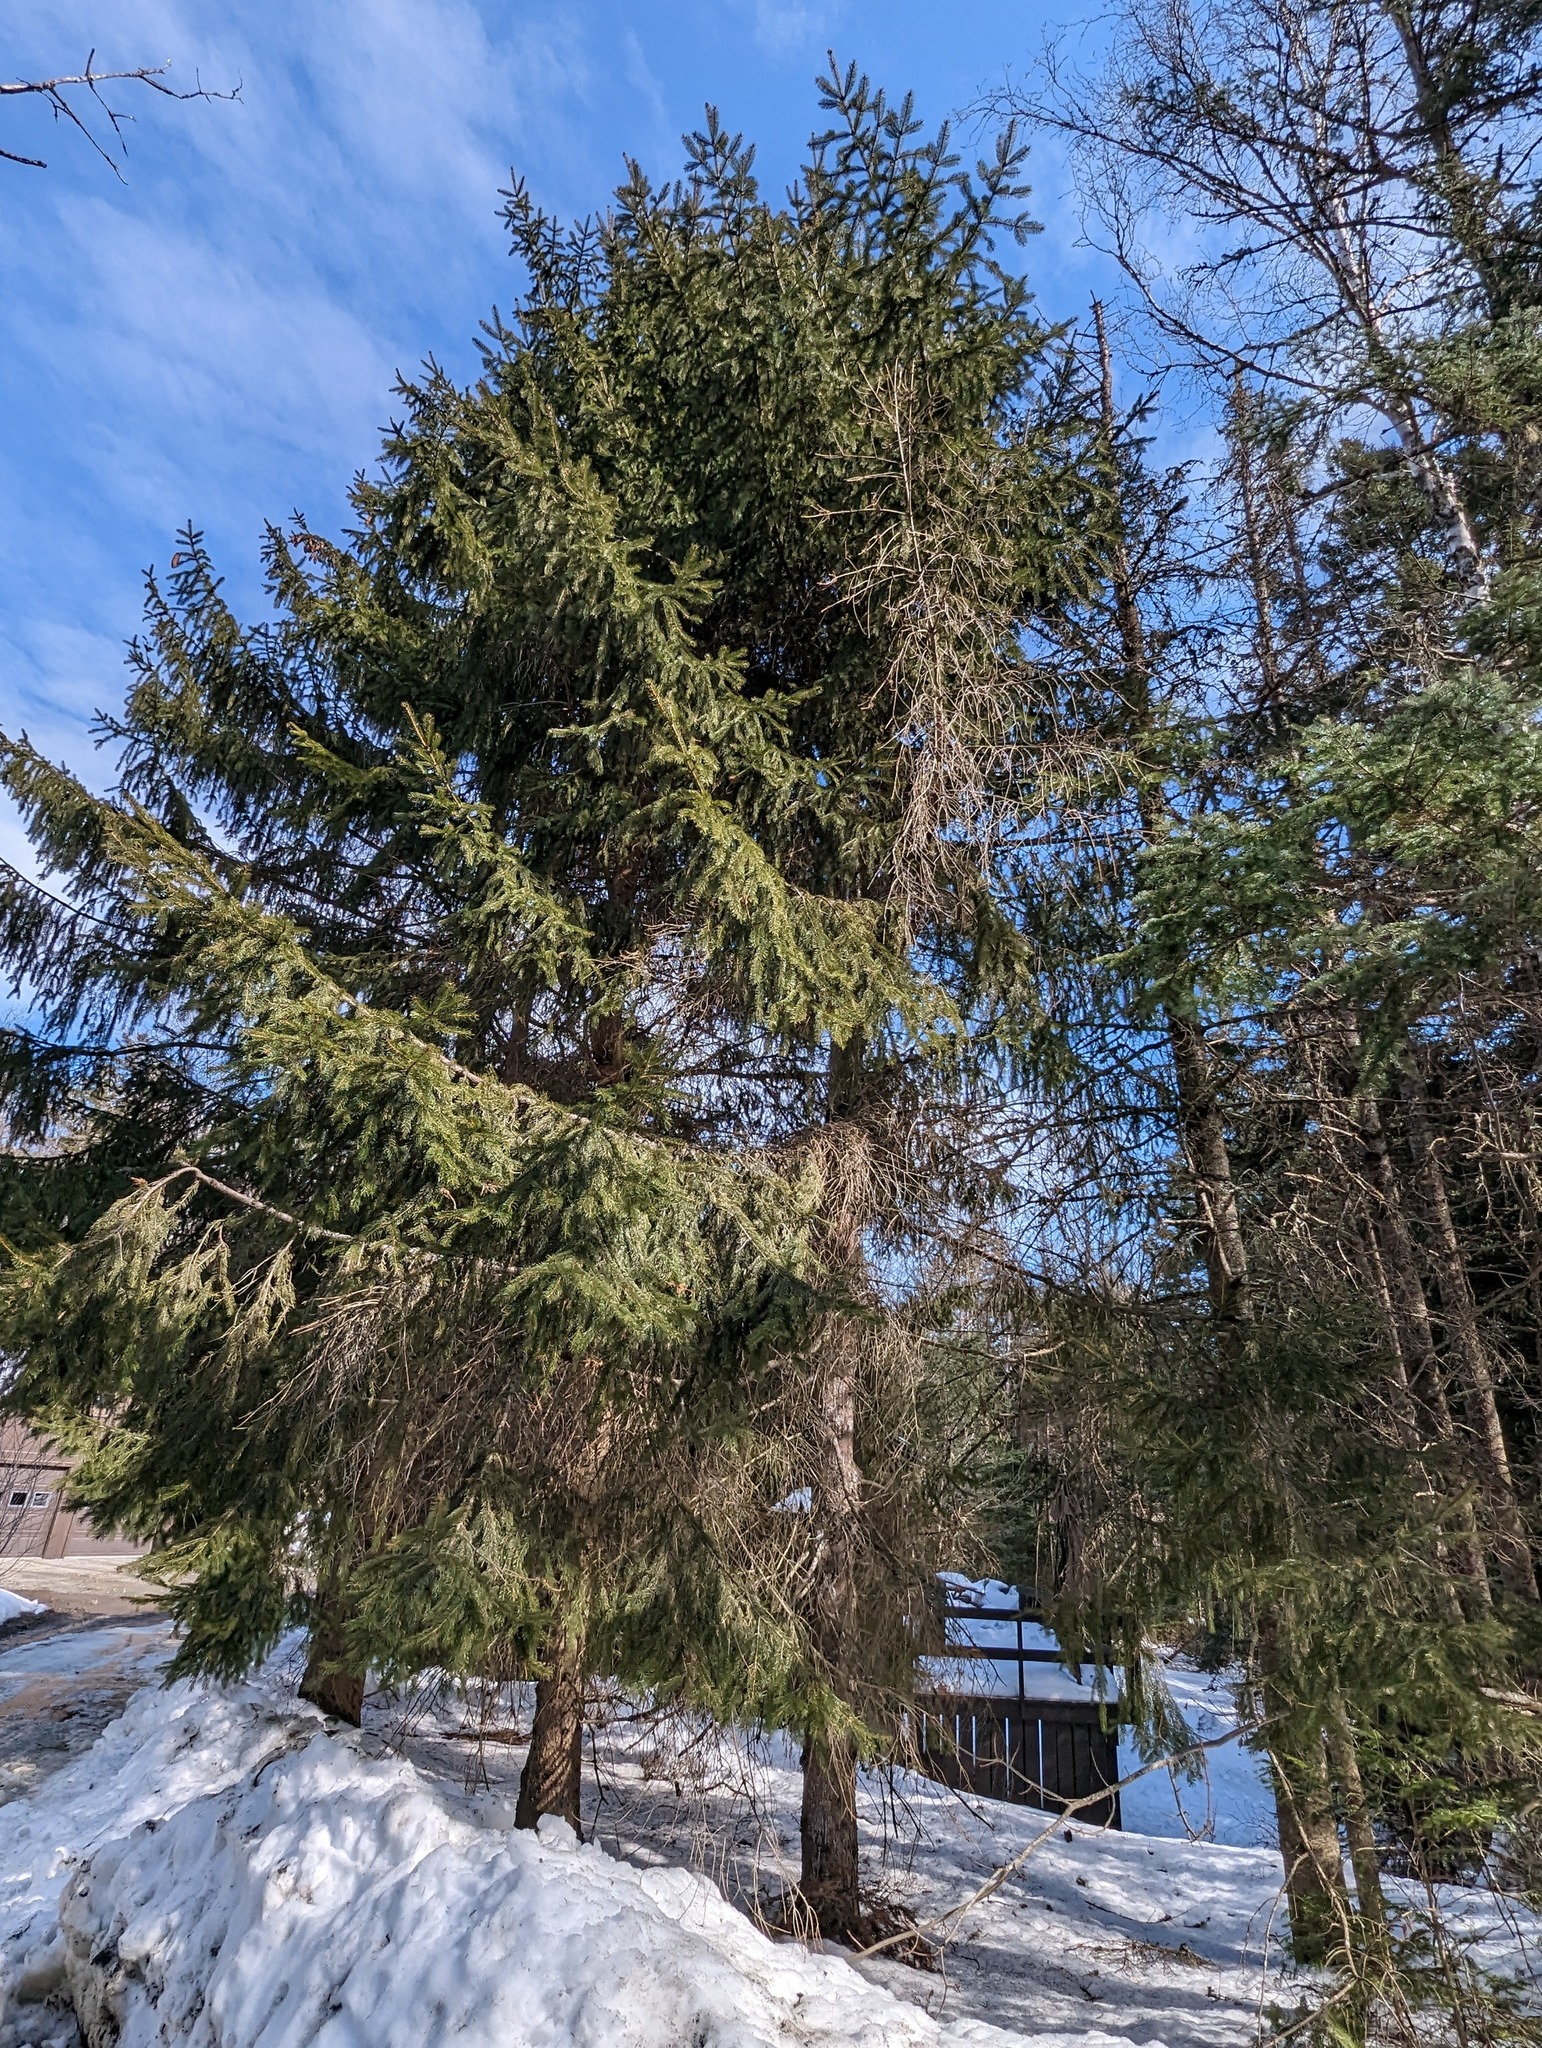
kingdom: Plantae
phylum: Tracheophyta
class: Pinopsida
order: Pinales
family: Pinaceae
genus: Picea
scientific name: Picea abies
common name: Norway spruce
